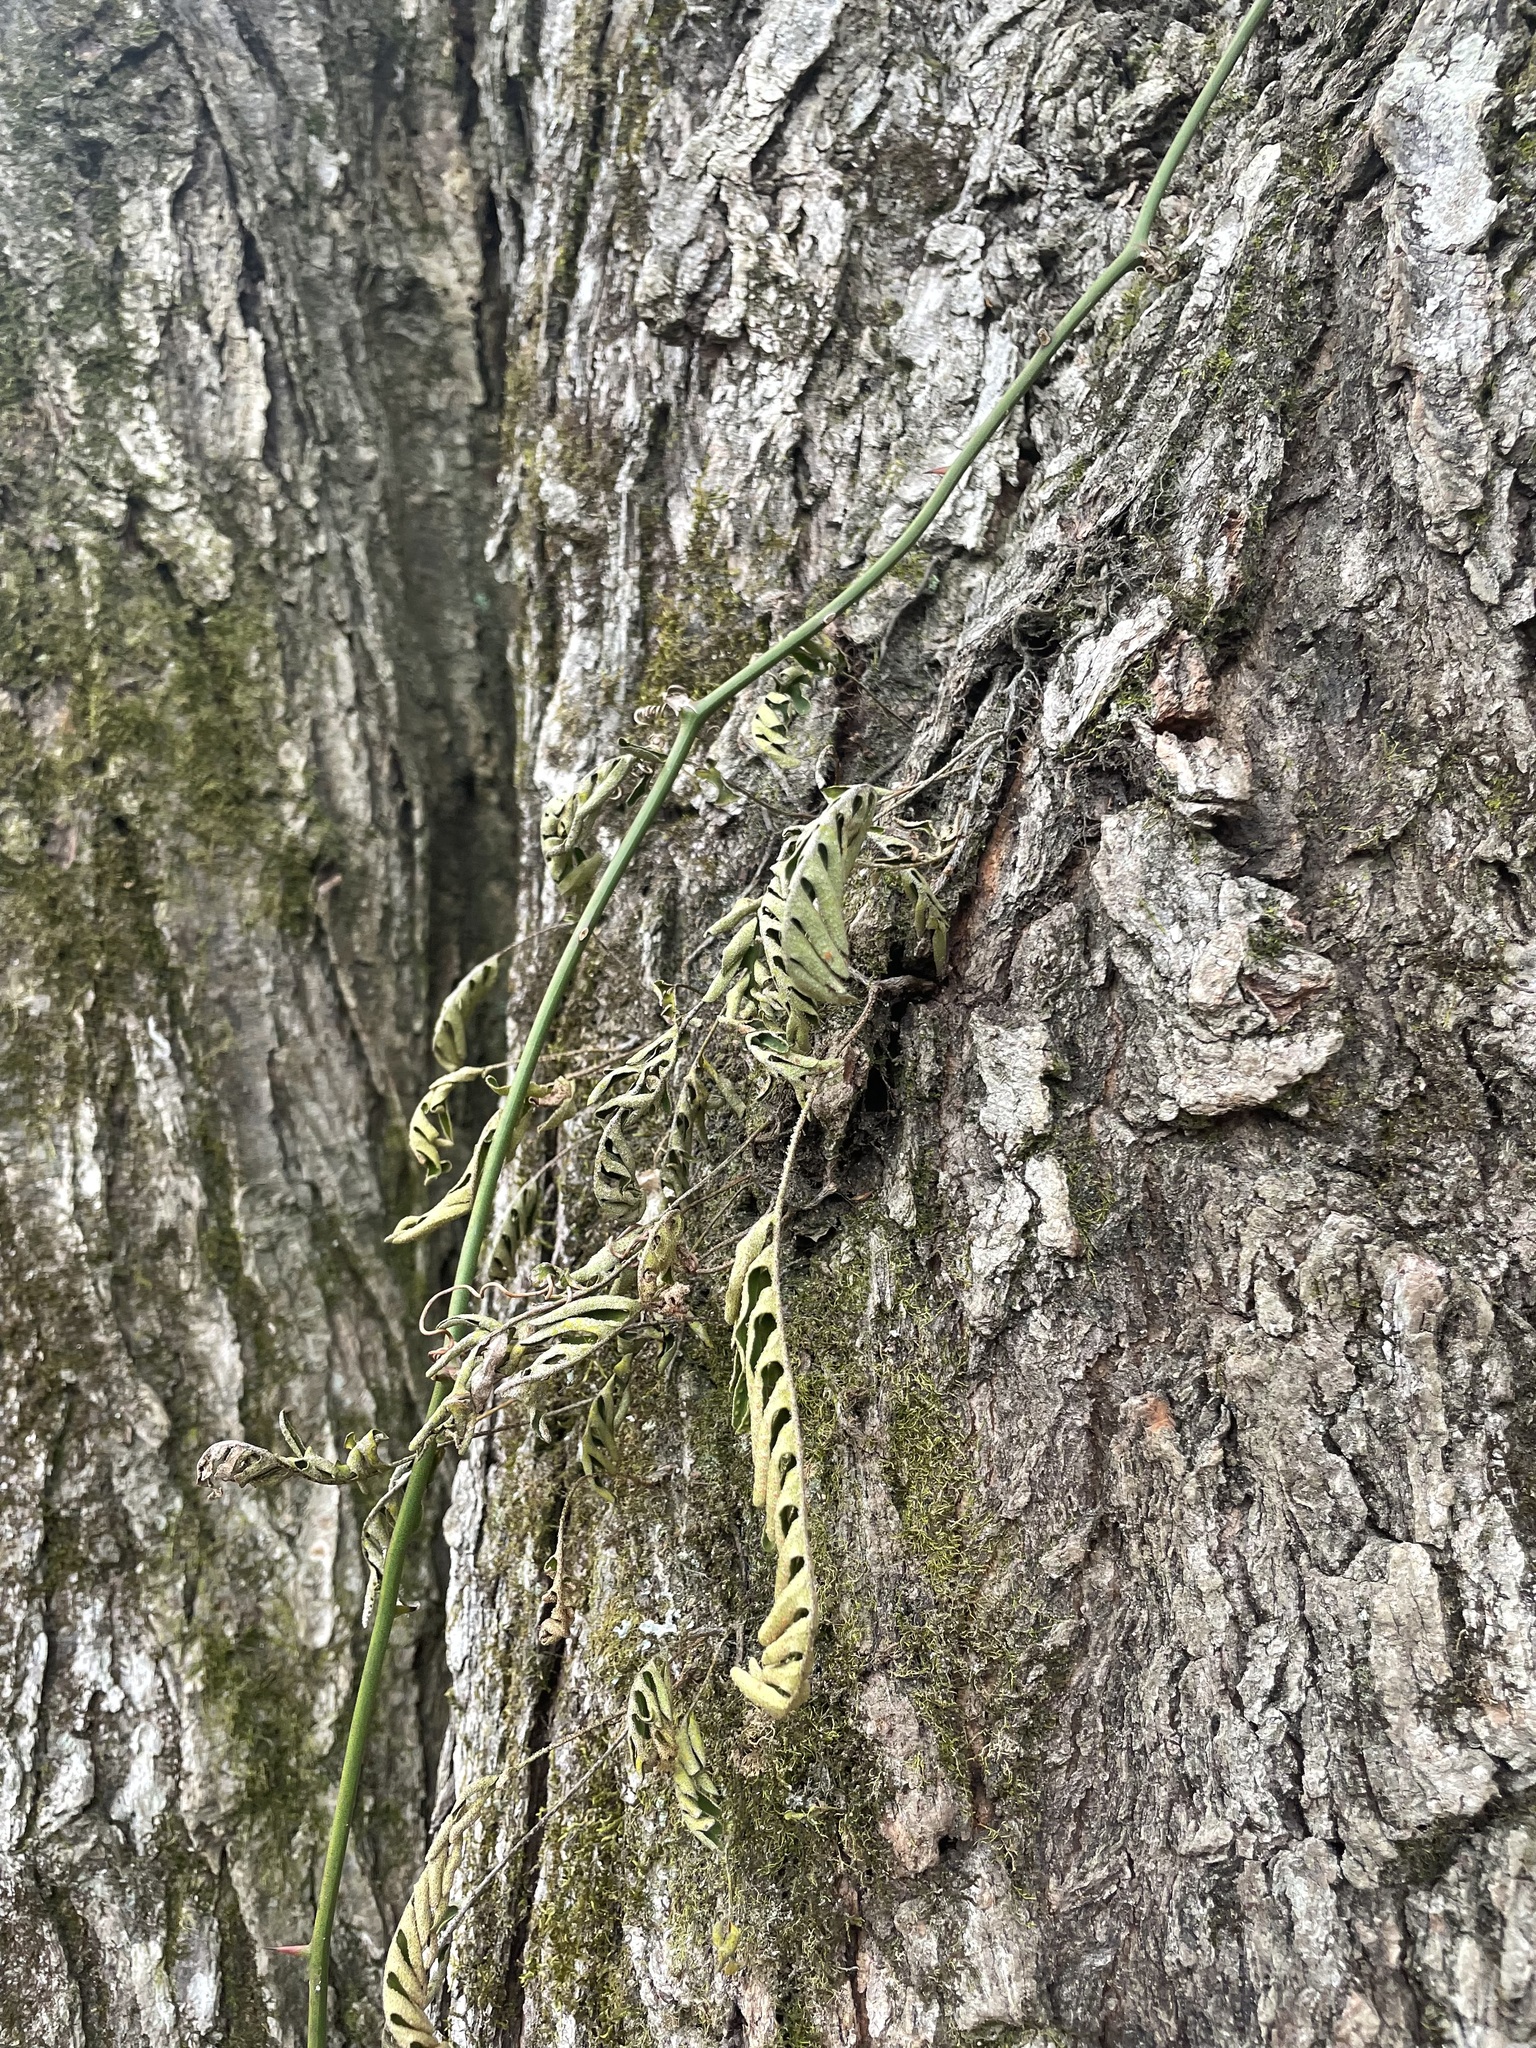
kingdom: Plantae
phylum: Tracheophyta
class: Polypodiopsida
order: Polypodiales
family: Polypodiaceae
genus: Pleopeltis
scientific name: Pleopeltis michauxiana
